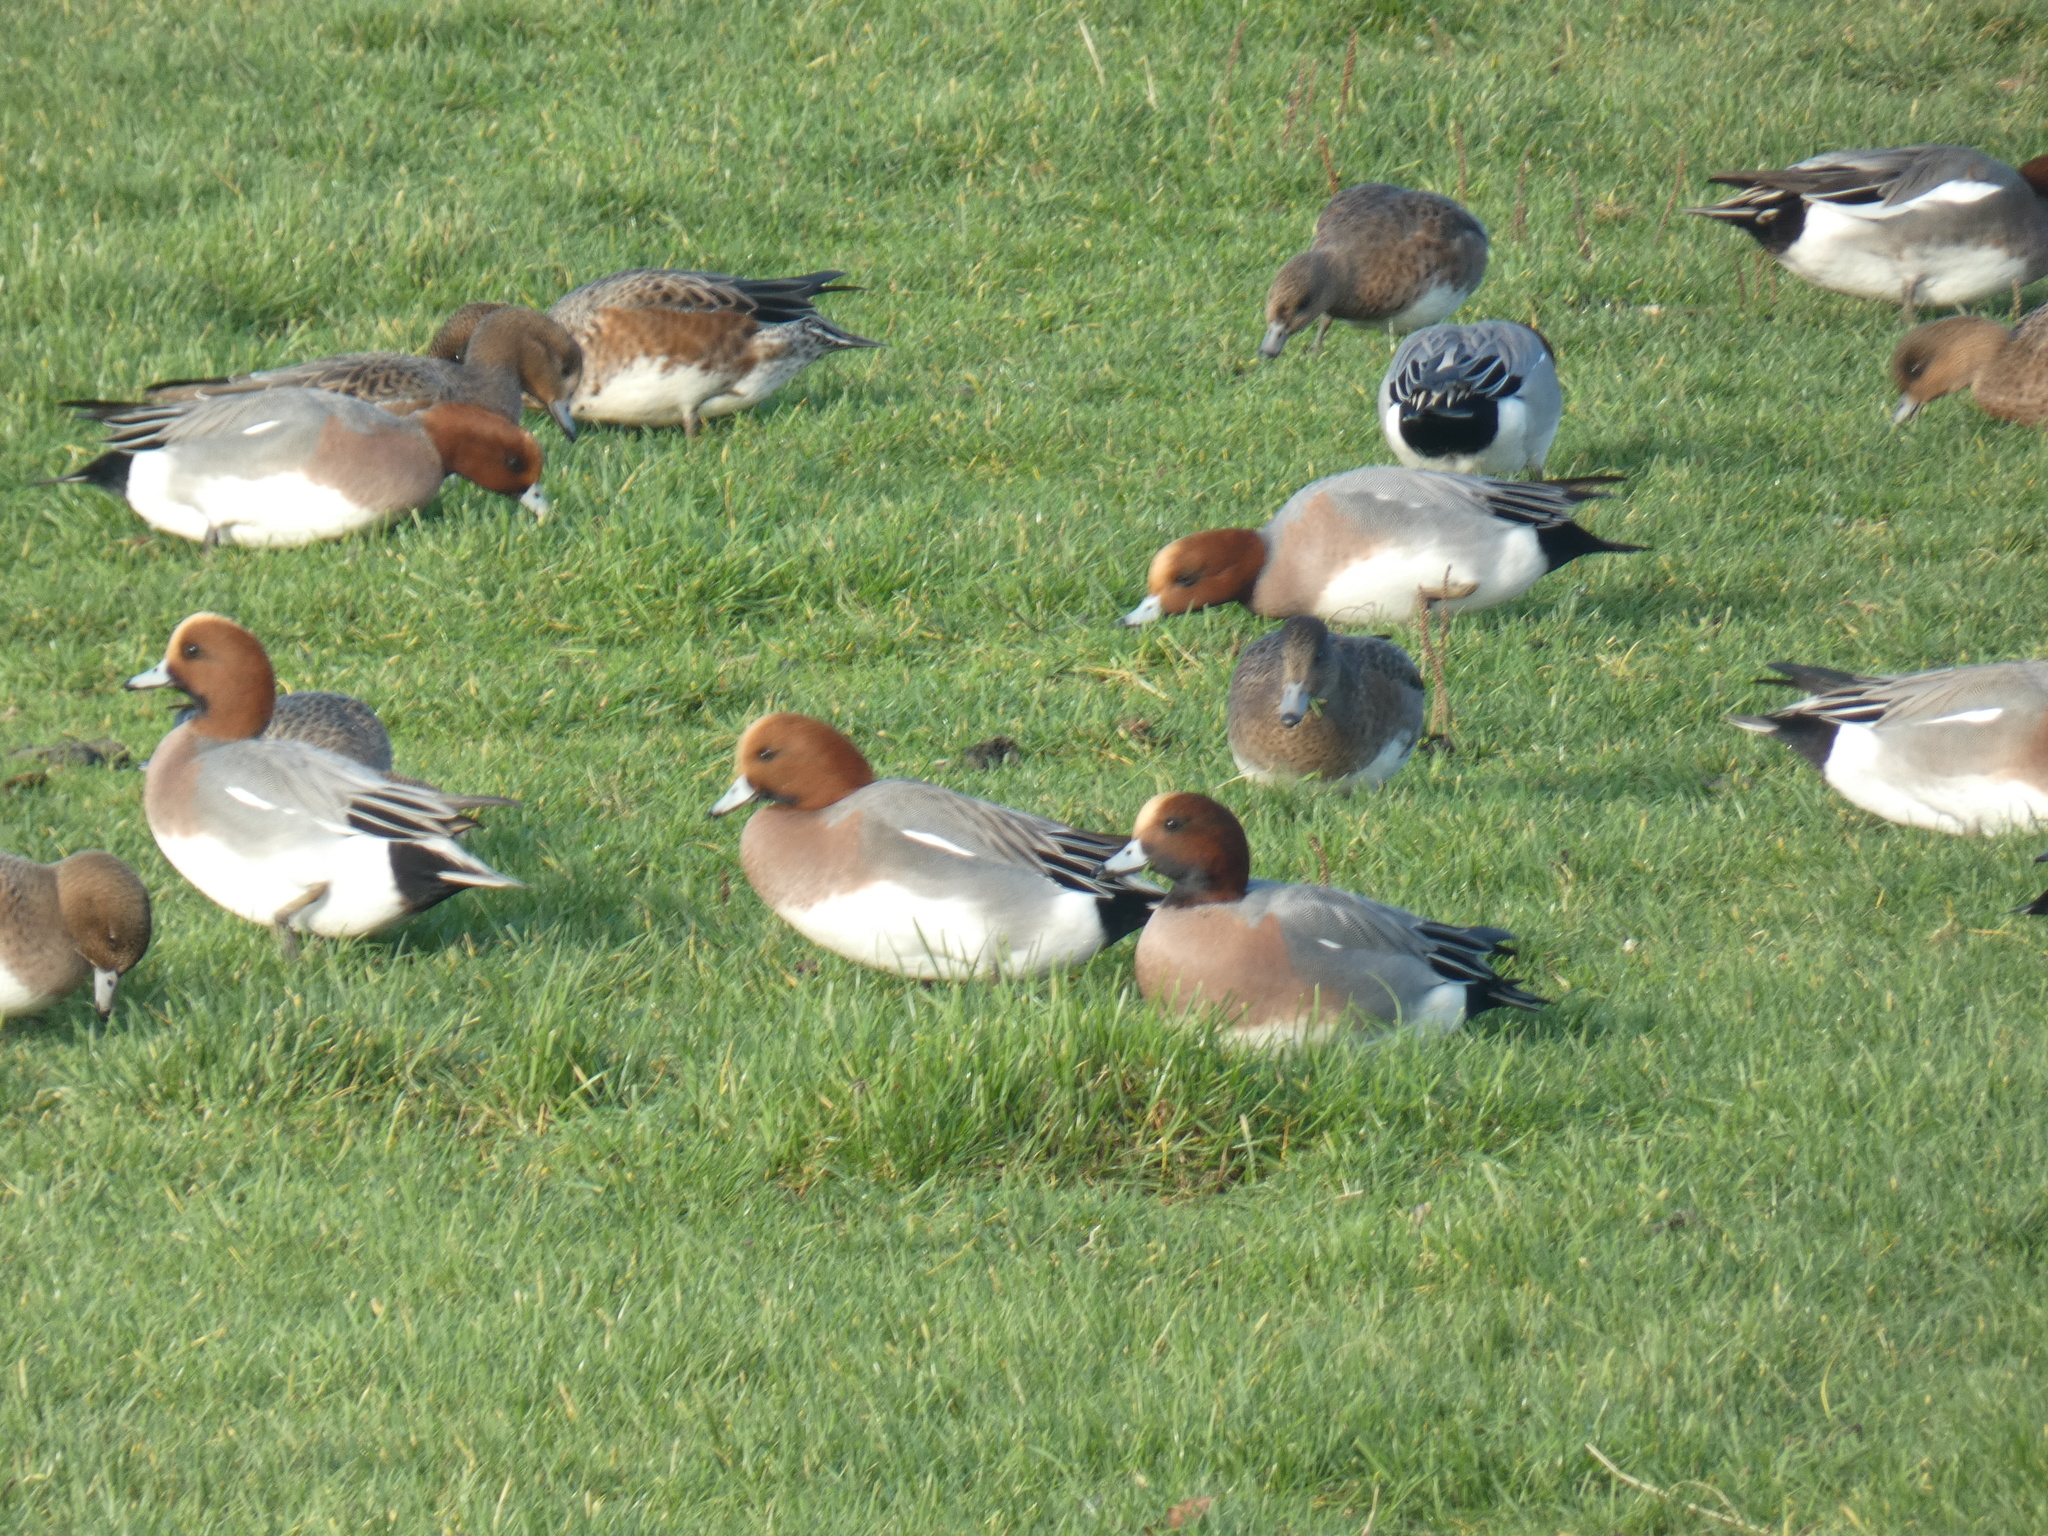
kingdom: Animalia
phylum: Chordata
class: Aves
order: Anseriformes
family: Anatidae
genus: Mareca
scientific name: Mareca penelope
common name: Eurasian wigeon
